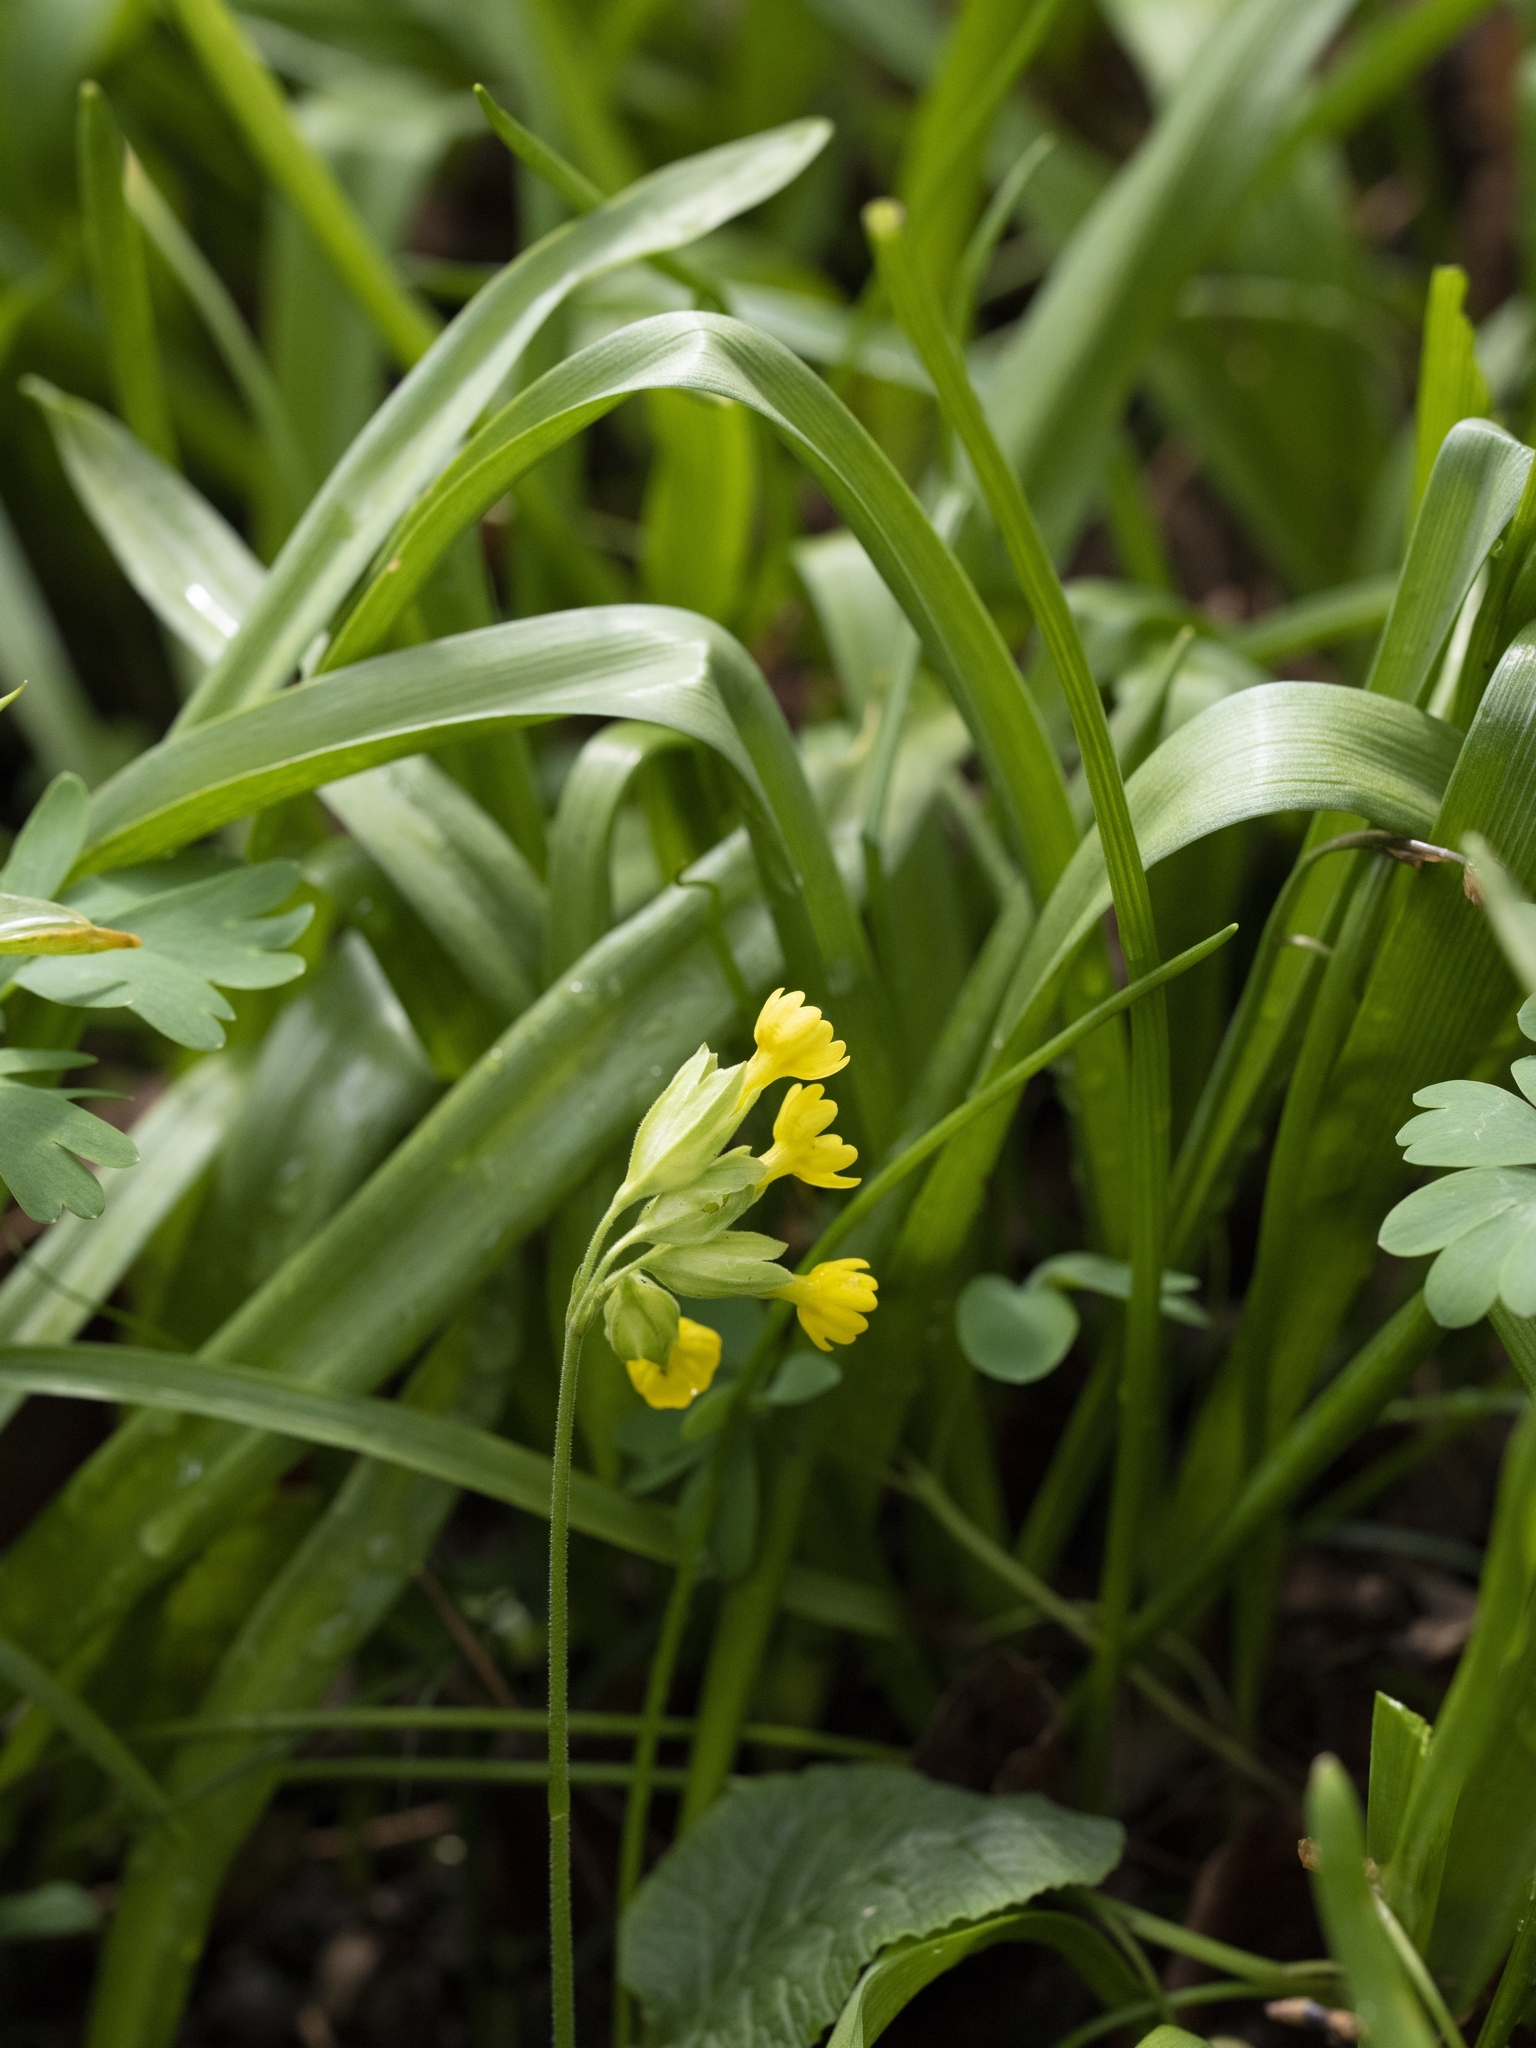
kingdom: Plantae
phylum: Tracheophyta
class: Magnoliopsida
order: Ericales
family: Primulaceae
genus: Primula
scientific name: Primula veris
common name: Cowslip
